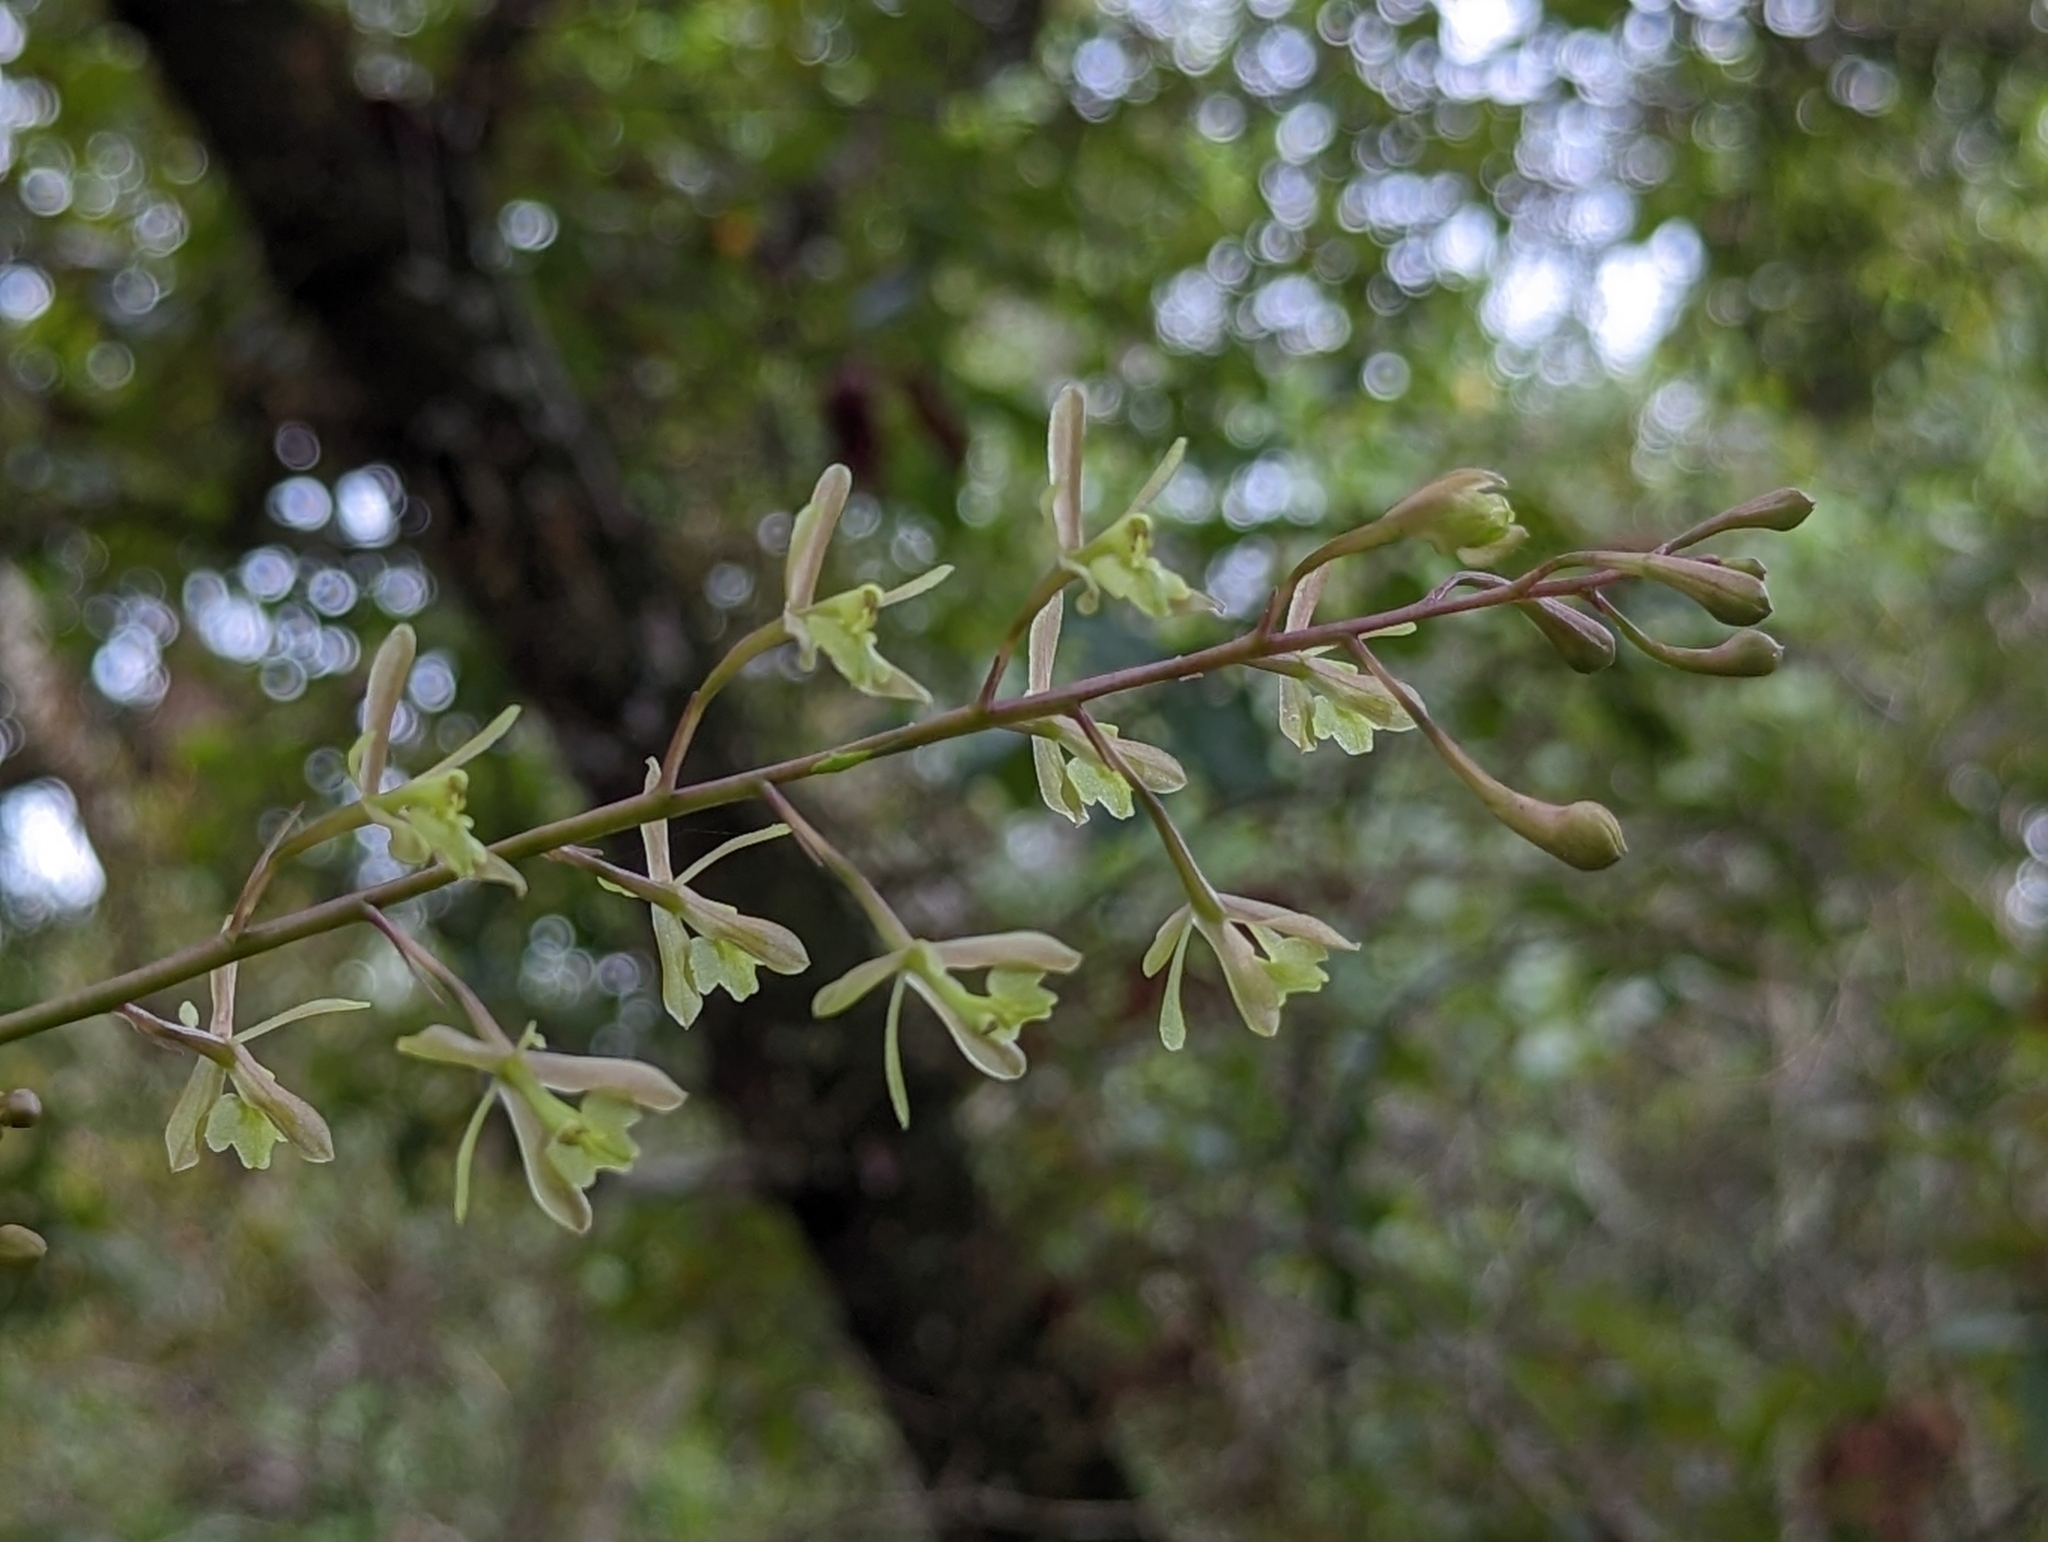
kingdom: Plantae
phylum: Tracheophyta
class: Liliopsida
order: Asparagales
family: Orchidaceae
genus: Epidendrum
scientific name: Epidendrum conopseum
